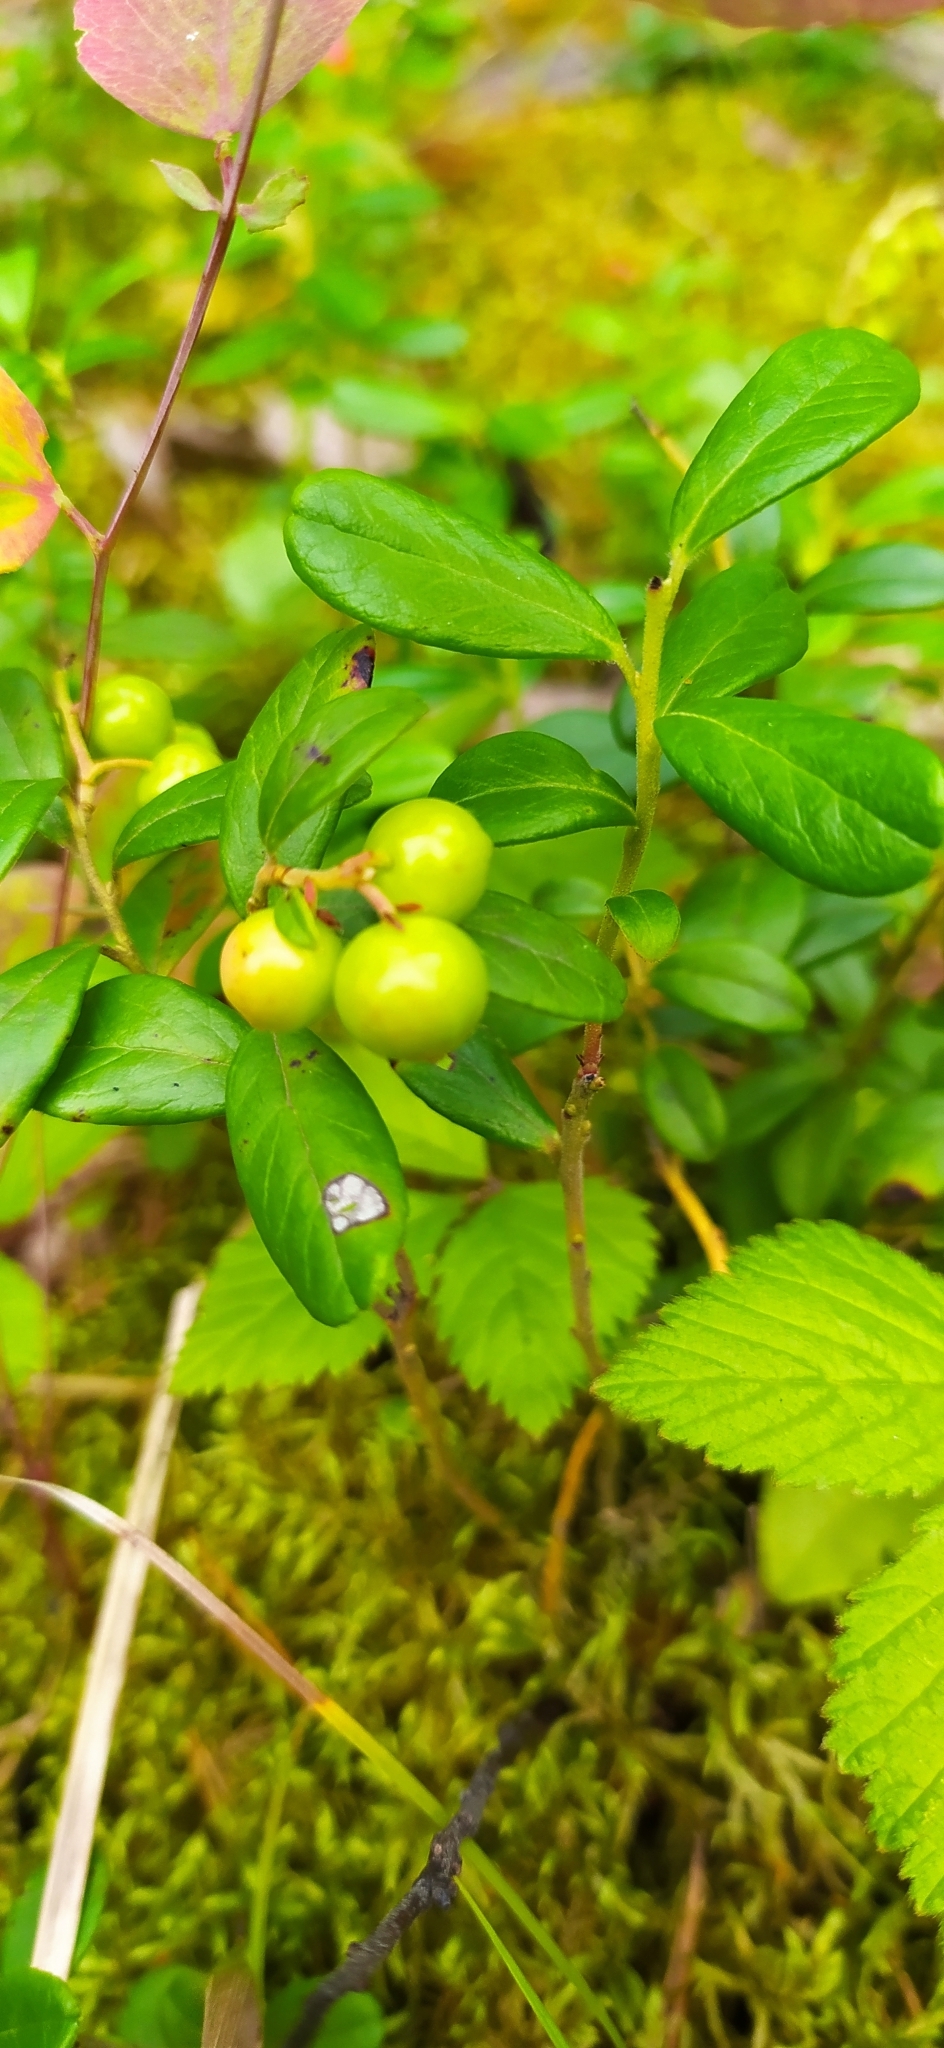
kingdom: Plantae
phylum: Tracheophyta
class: Magnoliopsida
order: Ericales
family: Ericaceae
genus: Vaccinium
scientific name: Vaccinium vitis-idaea
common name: Cowberry
